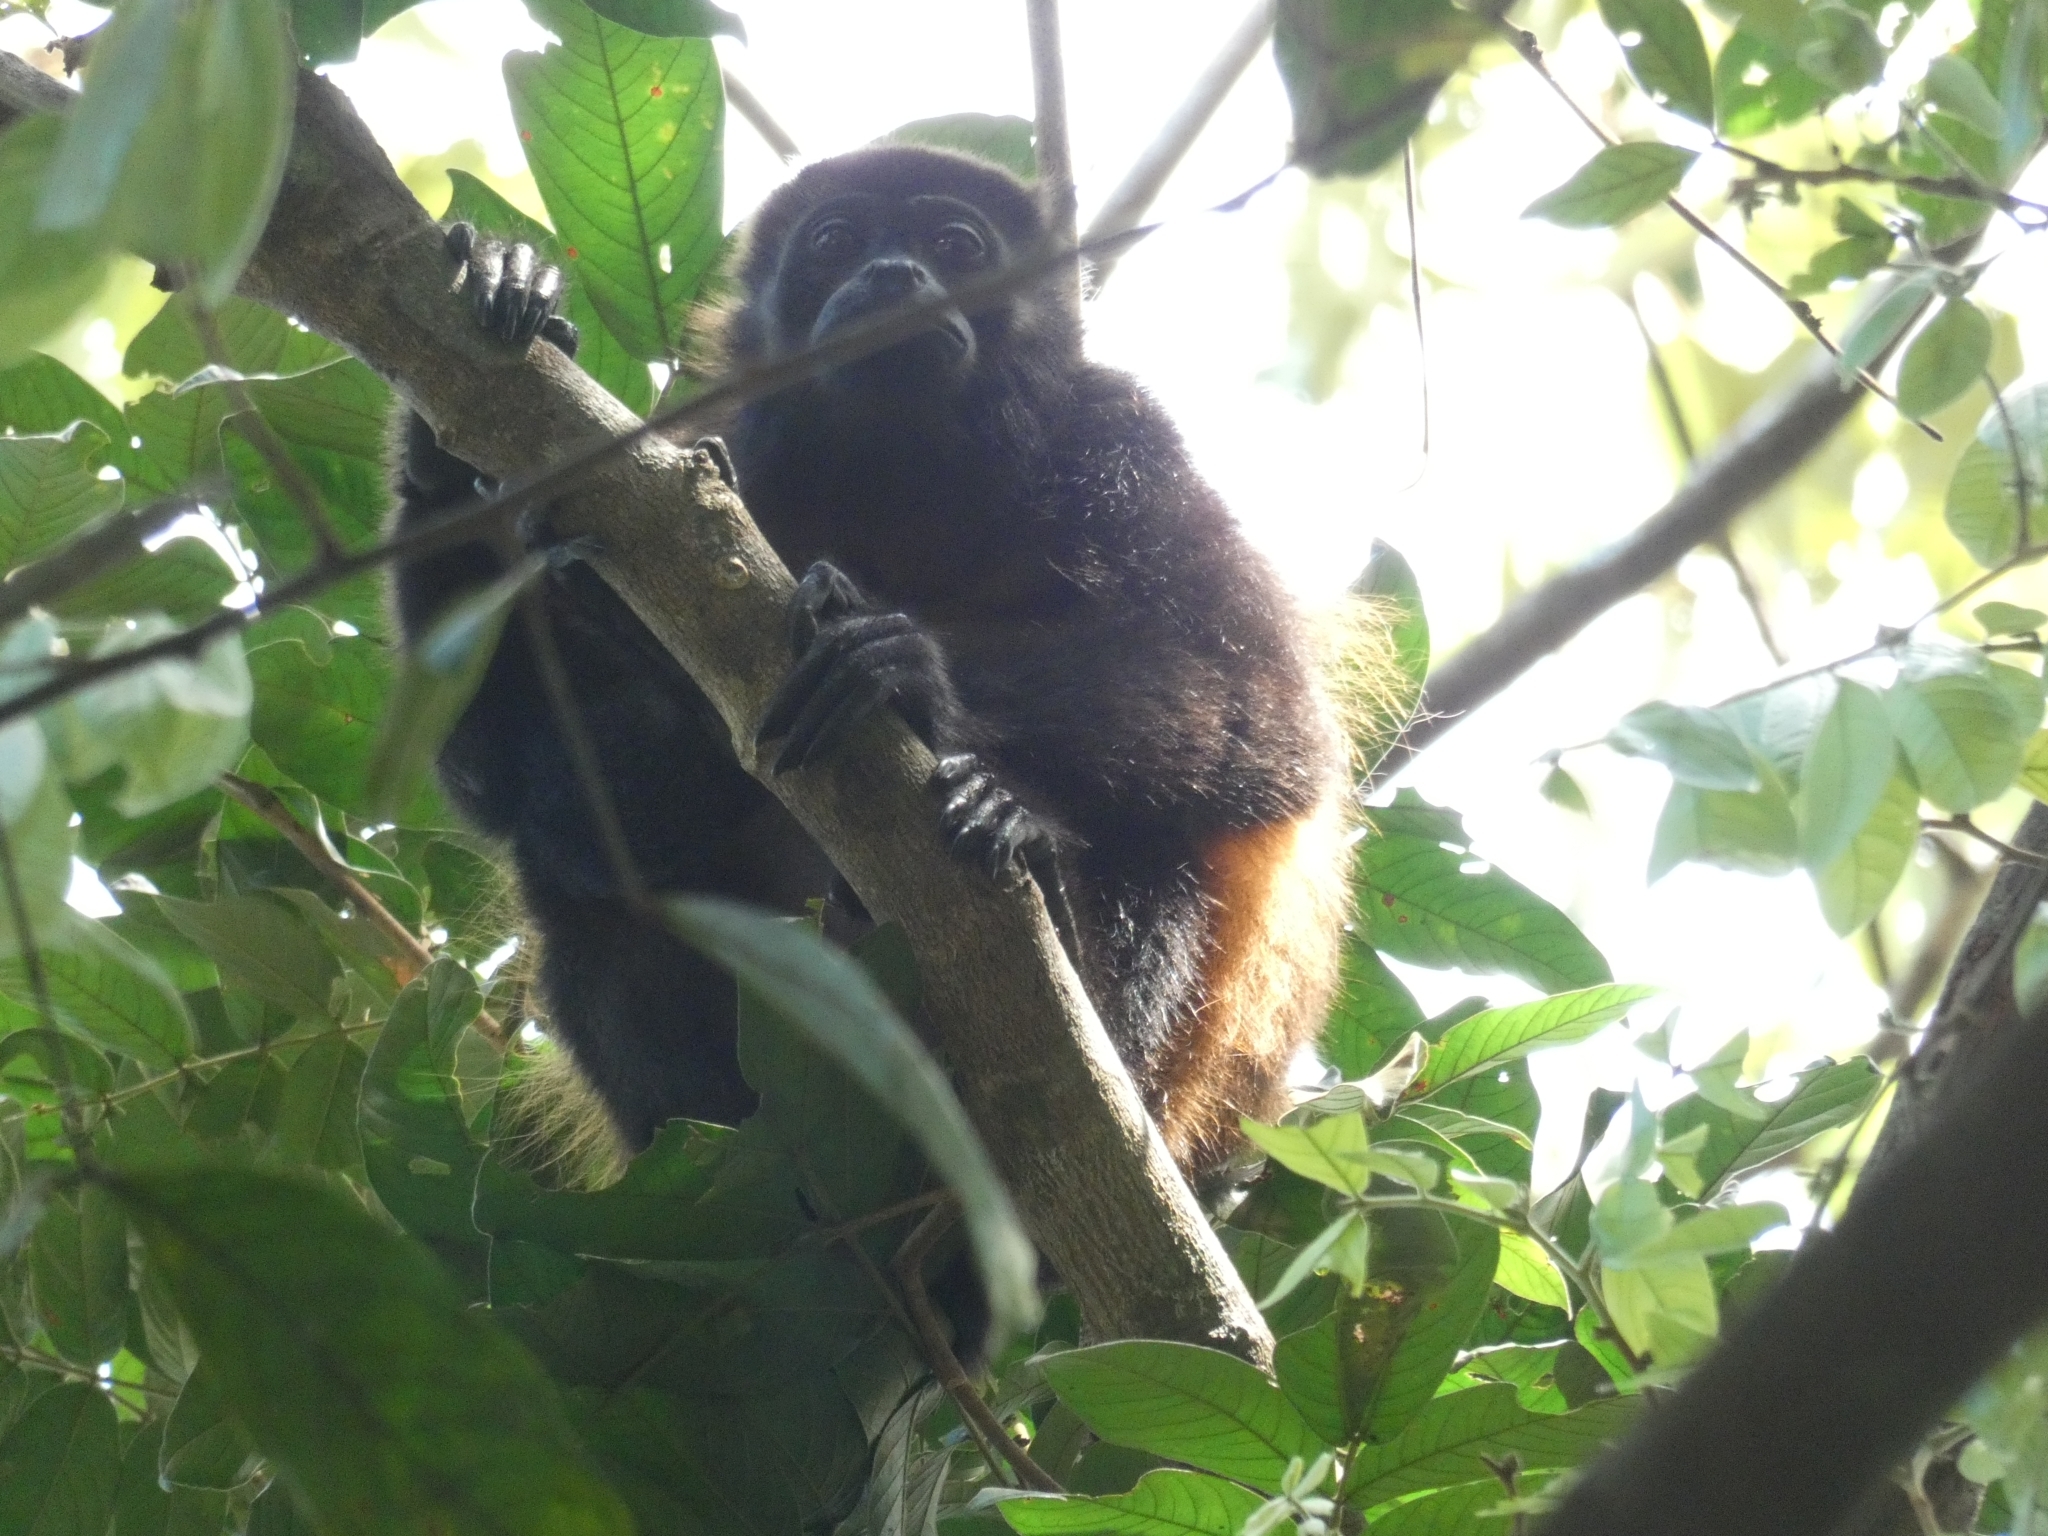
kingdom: Animalia
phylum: Chordata
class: Mammalia
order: Primates
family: Atelidae
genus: Alouatta
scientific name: Alouatta palliata
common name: Mantled howler
